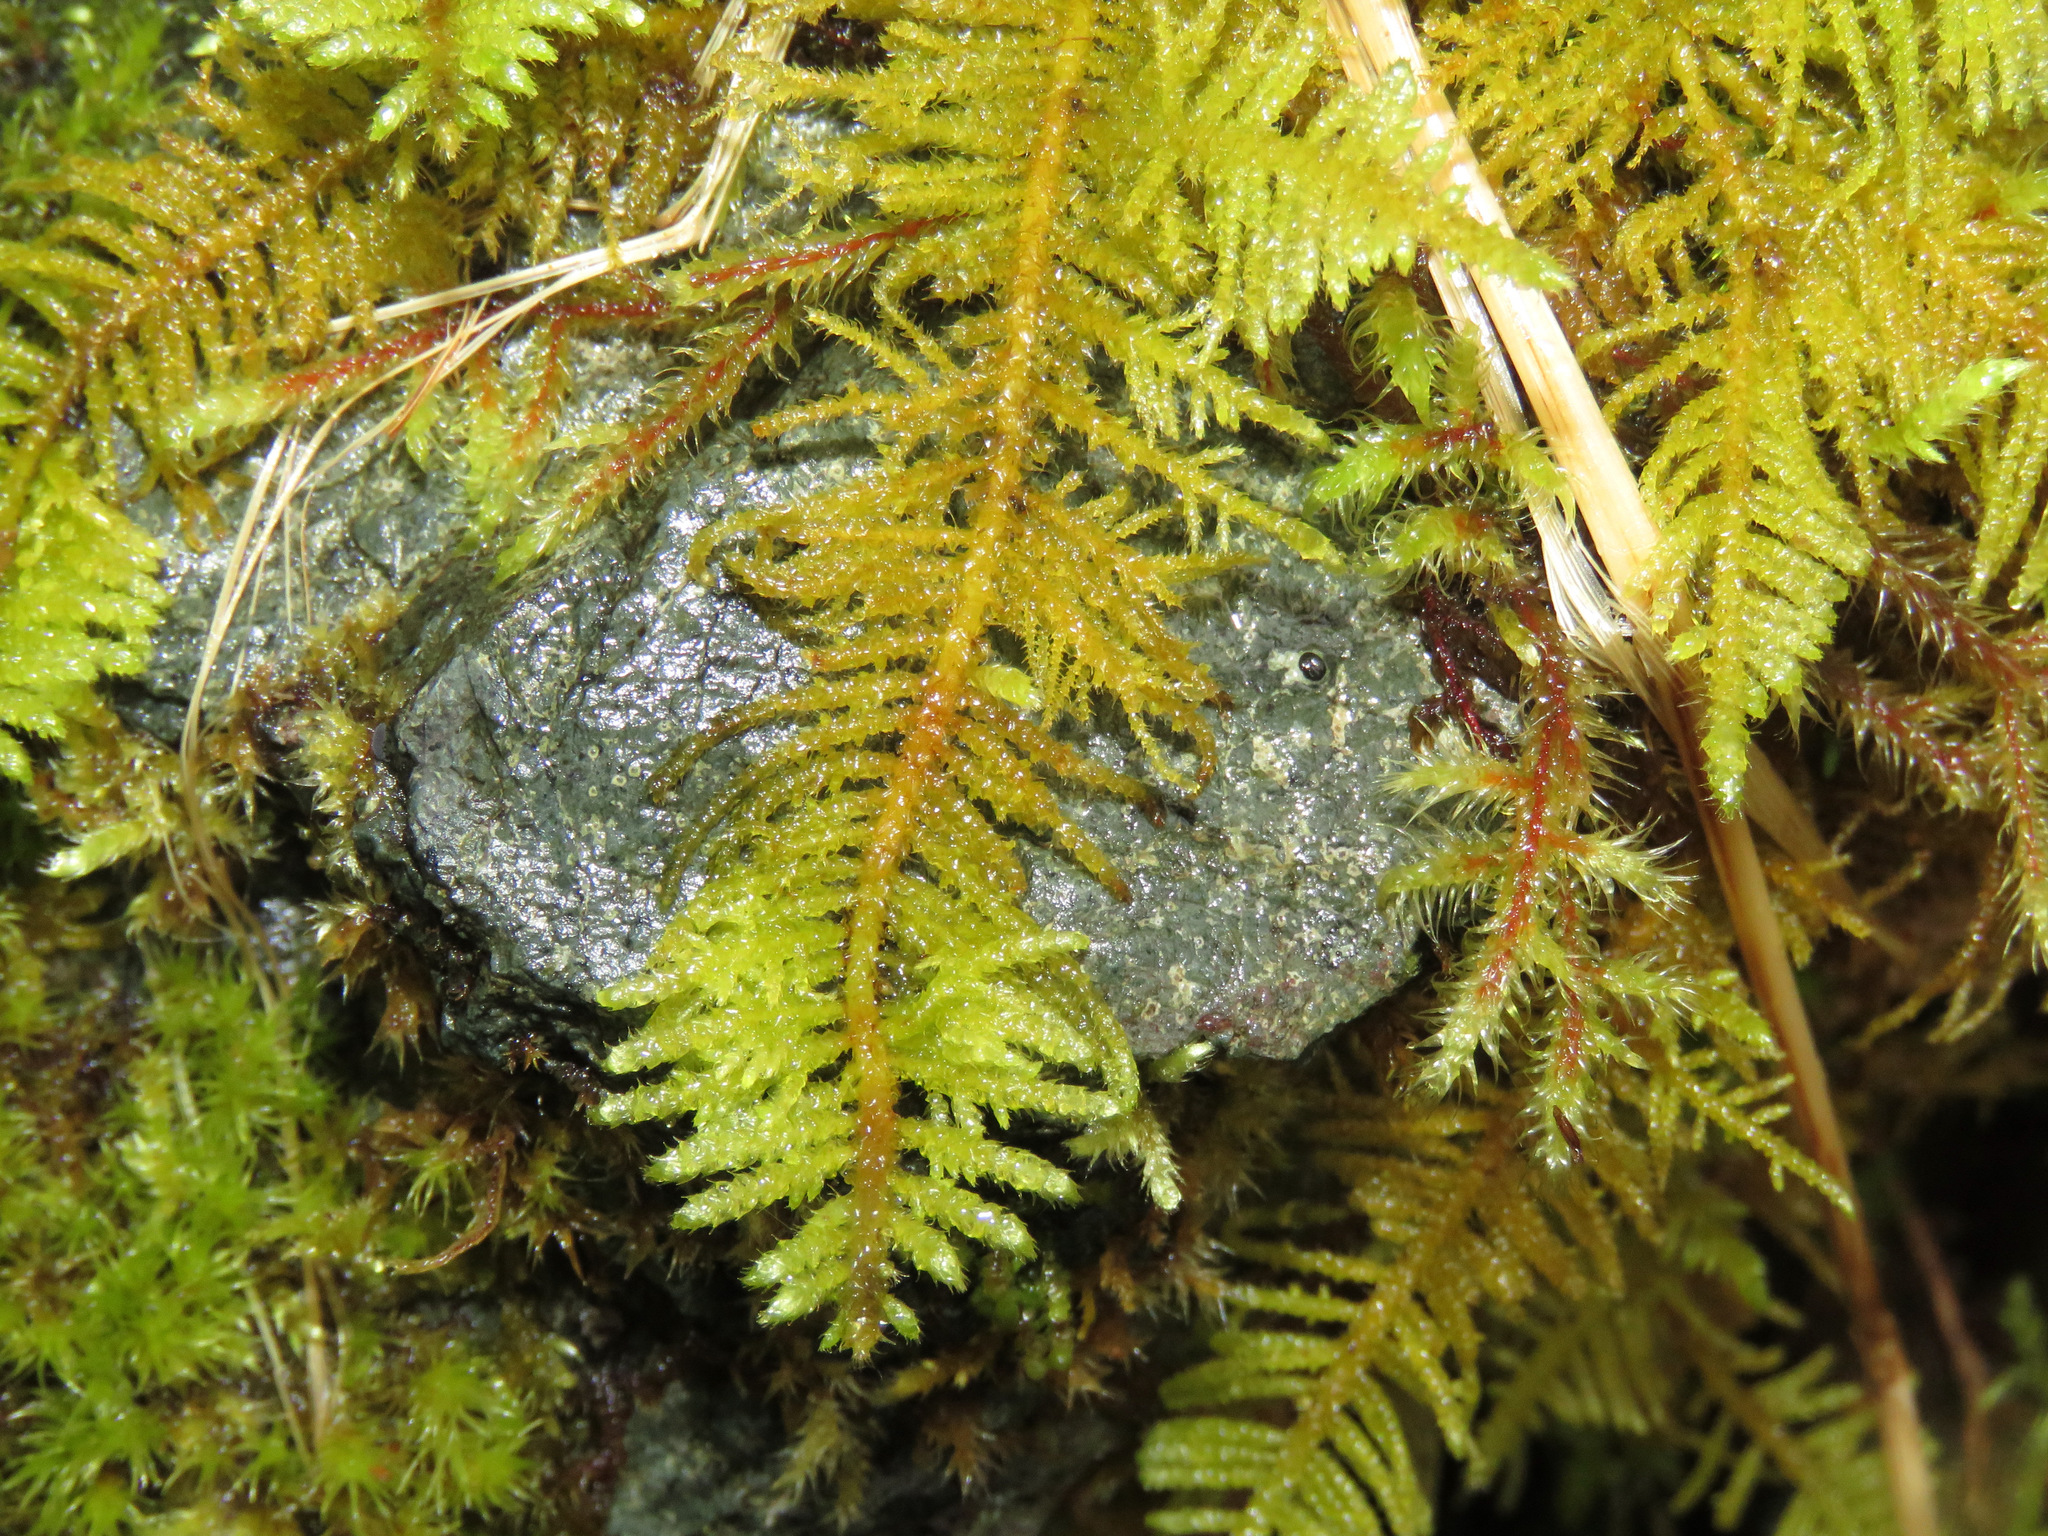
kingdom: Plantae
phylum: Bryophyta
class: Bryopsida
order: Hypnales
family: Brachytheciaceae
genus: Kindbergia
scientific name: Kindbergia oregana
